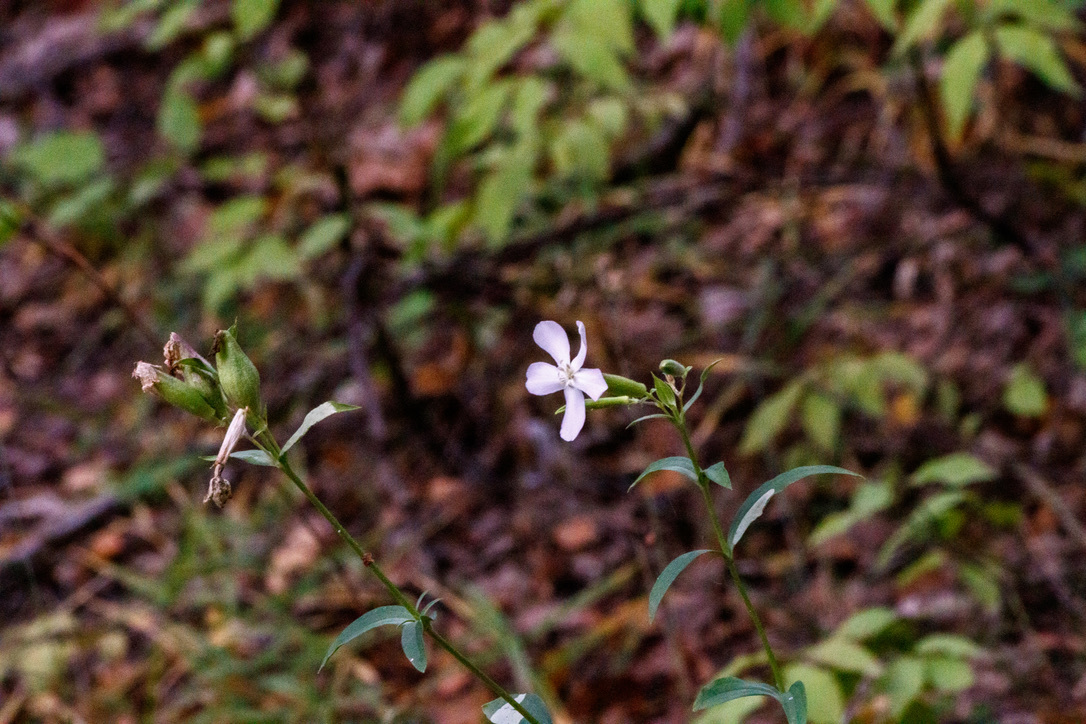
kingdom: Plantae
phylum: Tracheophyta
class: Magnoliopsida
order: Caryophyllales
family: Caryophyllaceae
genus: Saponaria
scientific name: Saponaria officinalis
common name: Soapwort
